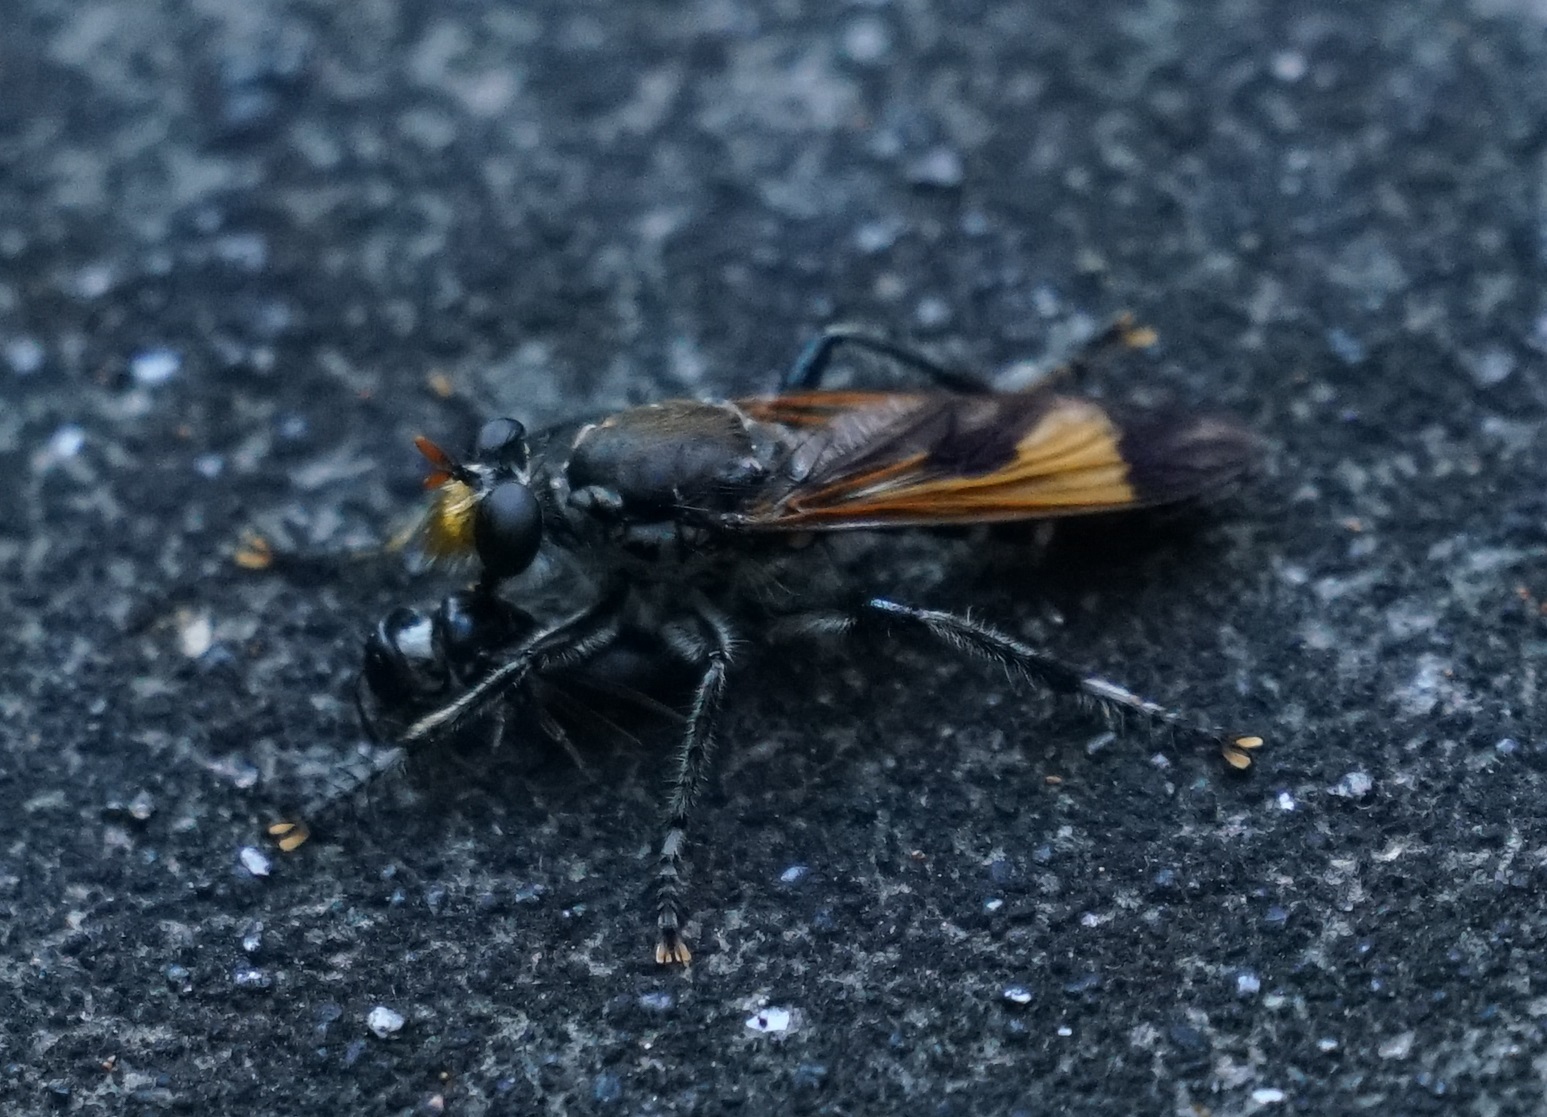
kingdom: Animalia
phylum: Arthropoda
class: Insecta
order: Diptera
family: Asilidae
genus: Orthogonis
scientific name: Orthogonis ornatipennis
